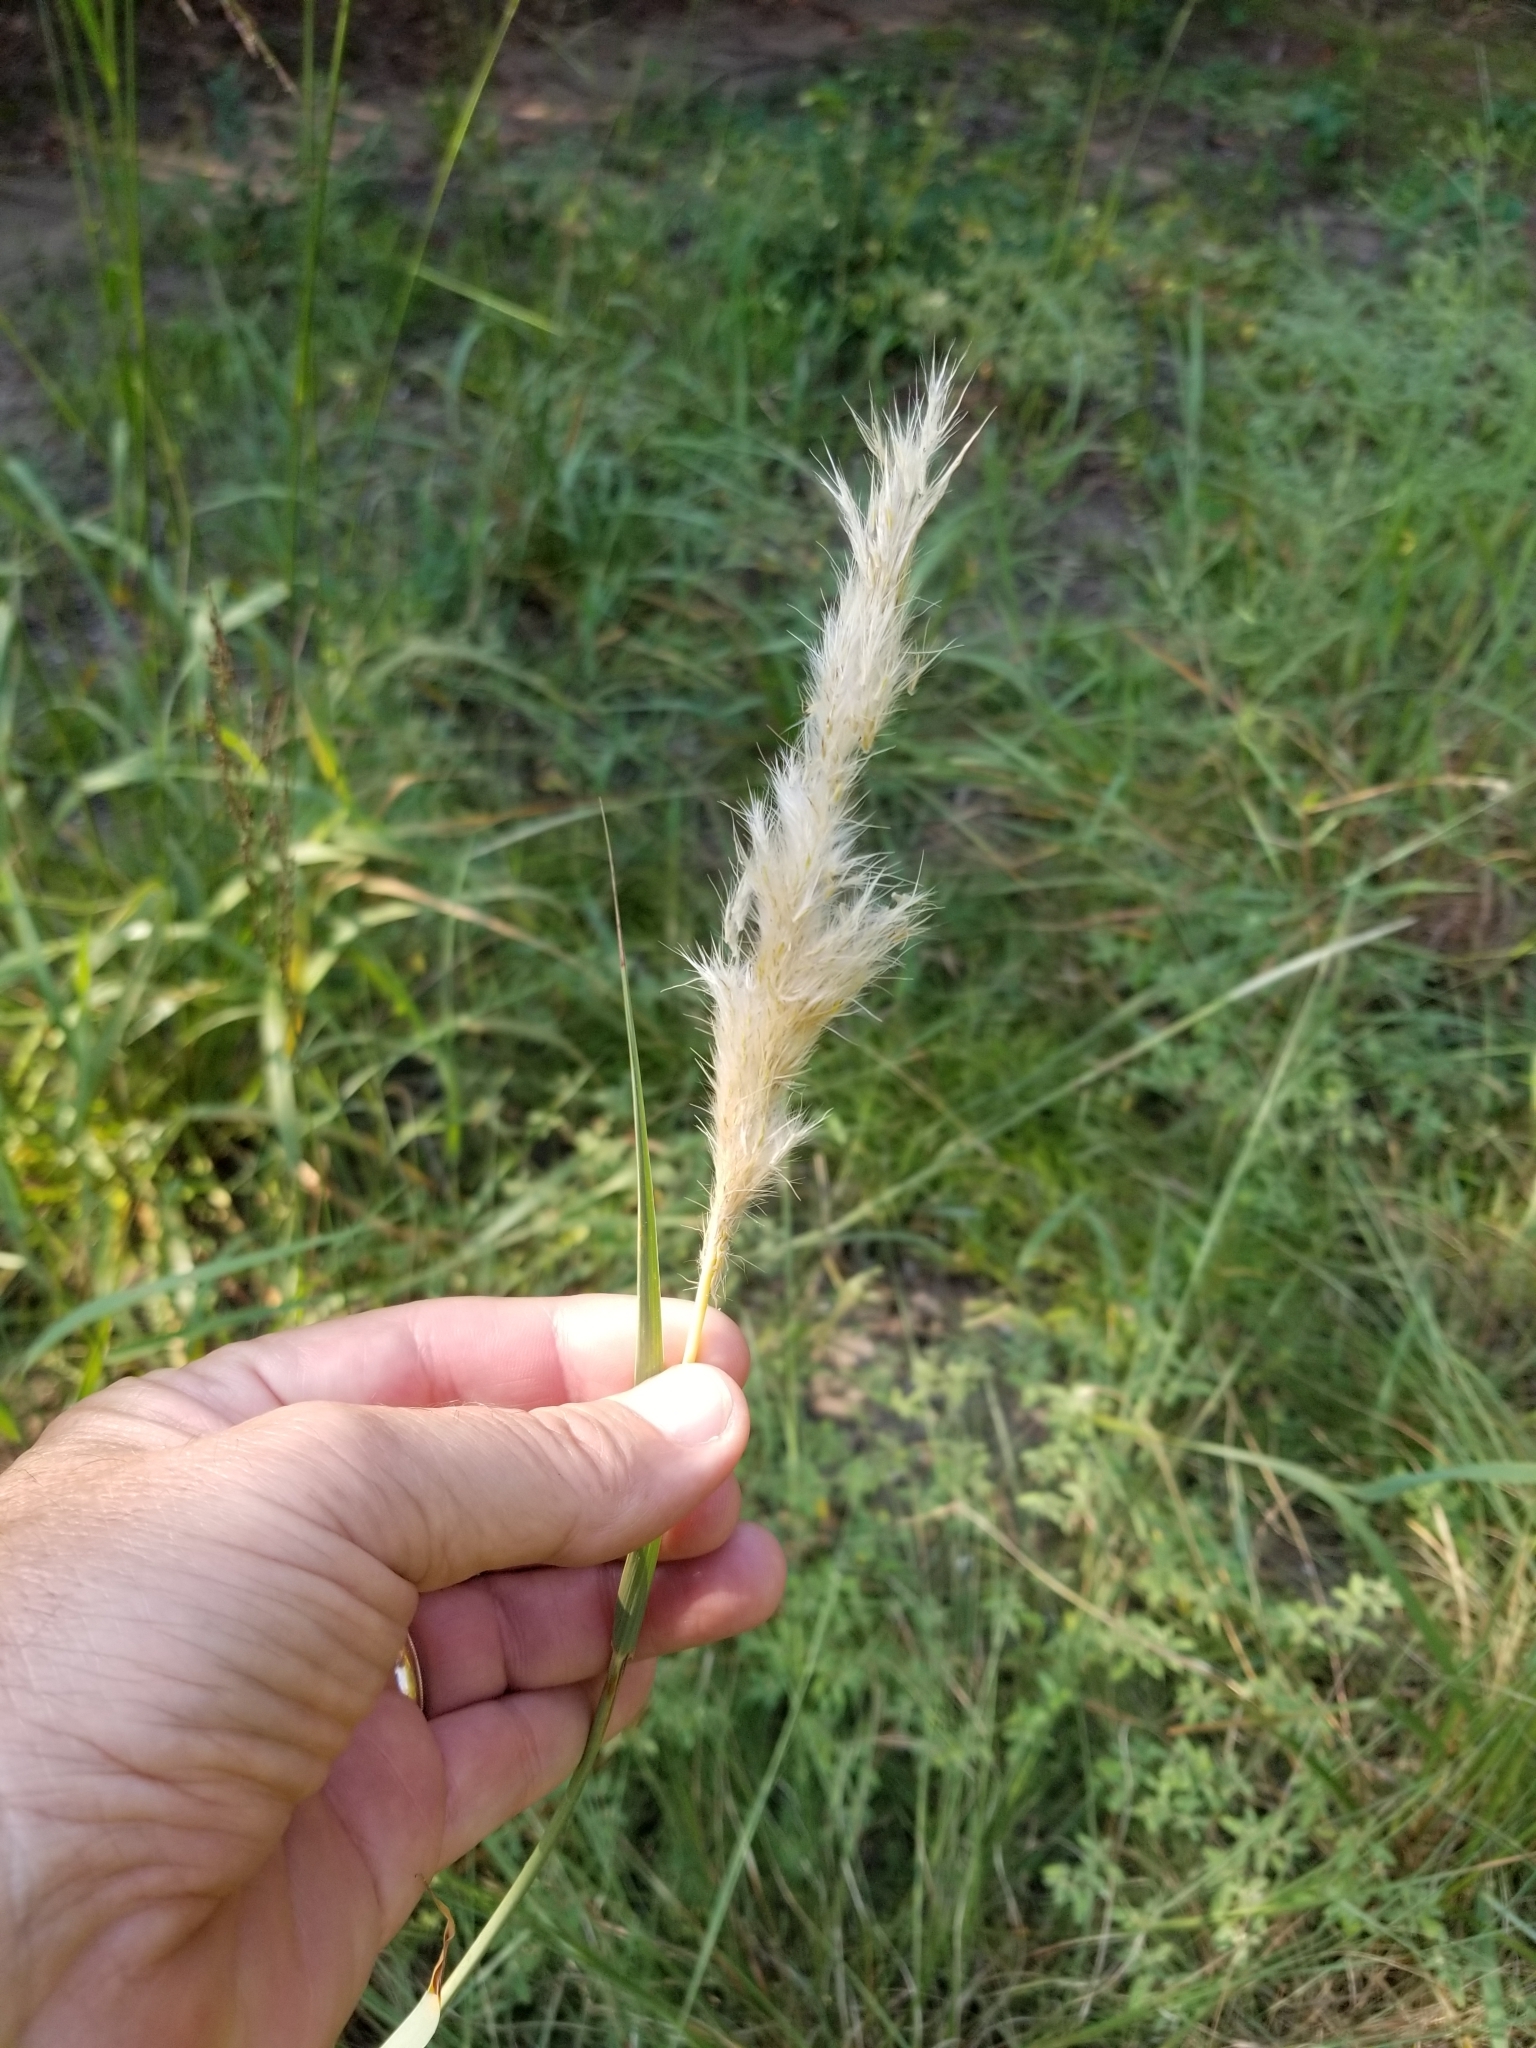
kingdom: Plantae
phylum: Tracheophyta
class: Liliopsida
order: Poales
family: Poaceae
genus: Bothriochloa
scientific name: Bothriochloa torreyana
